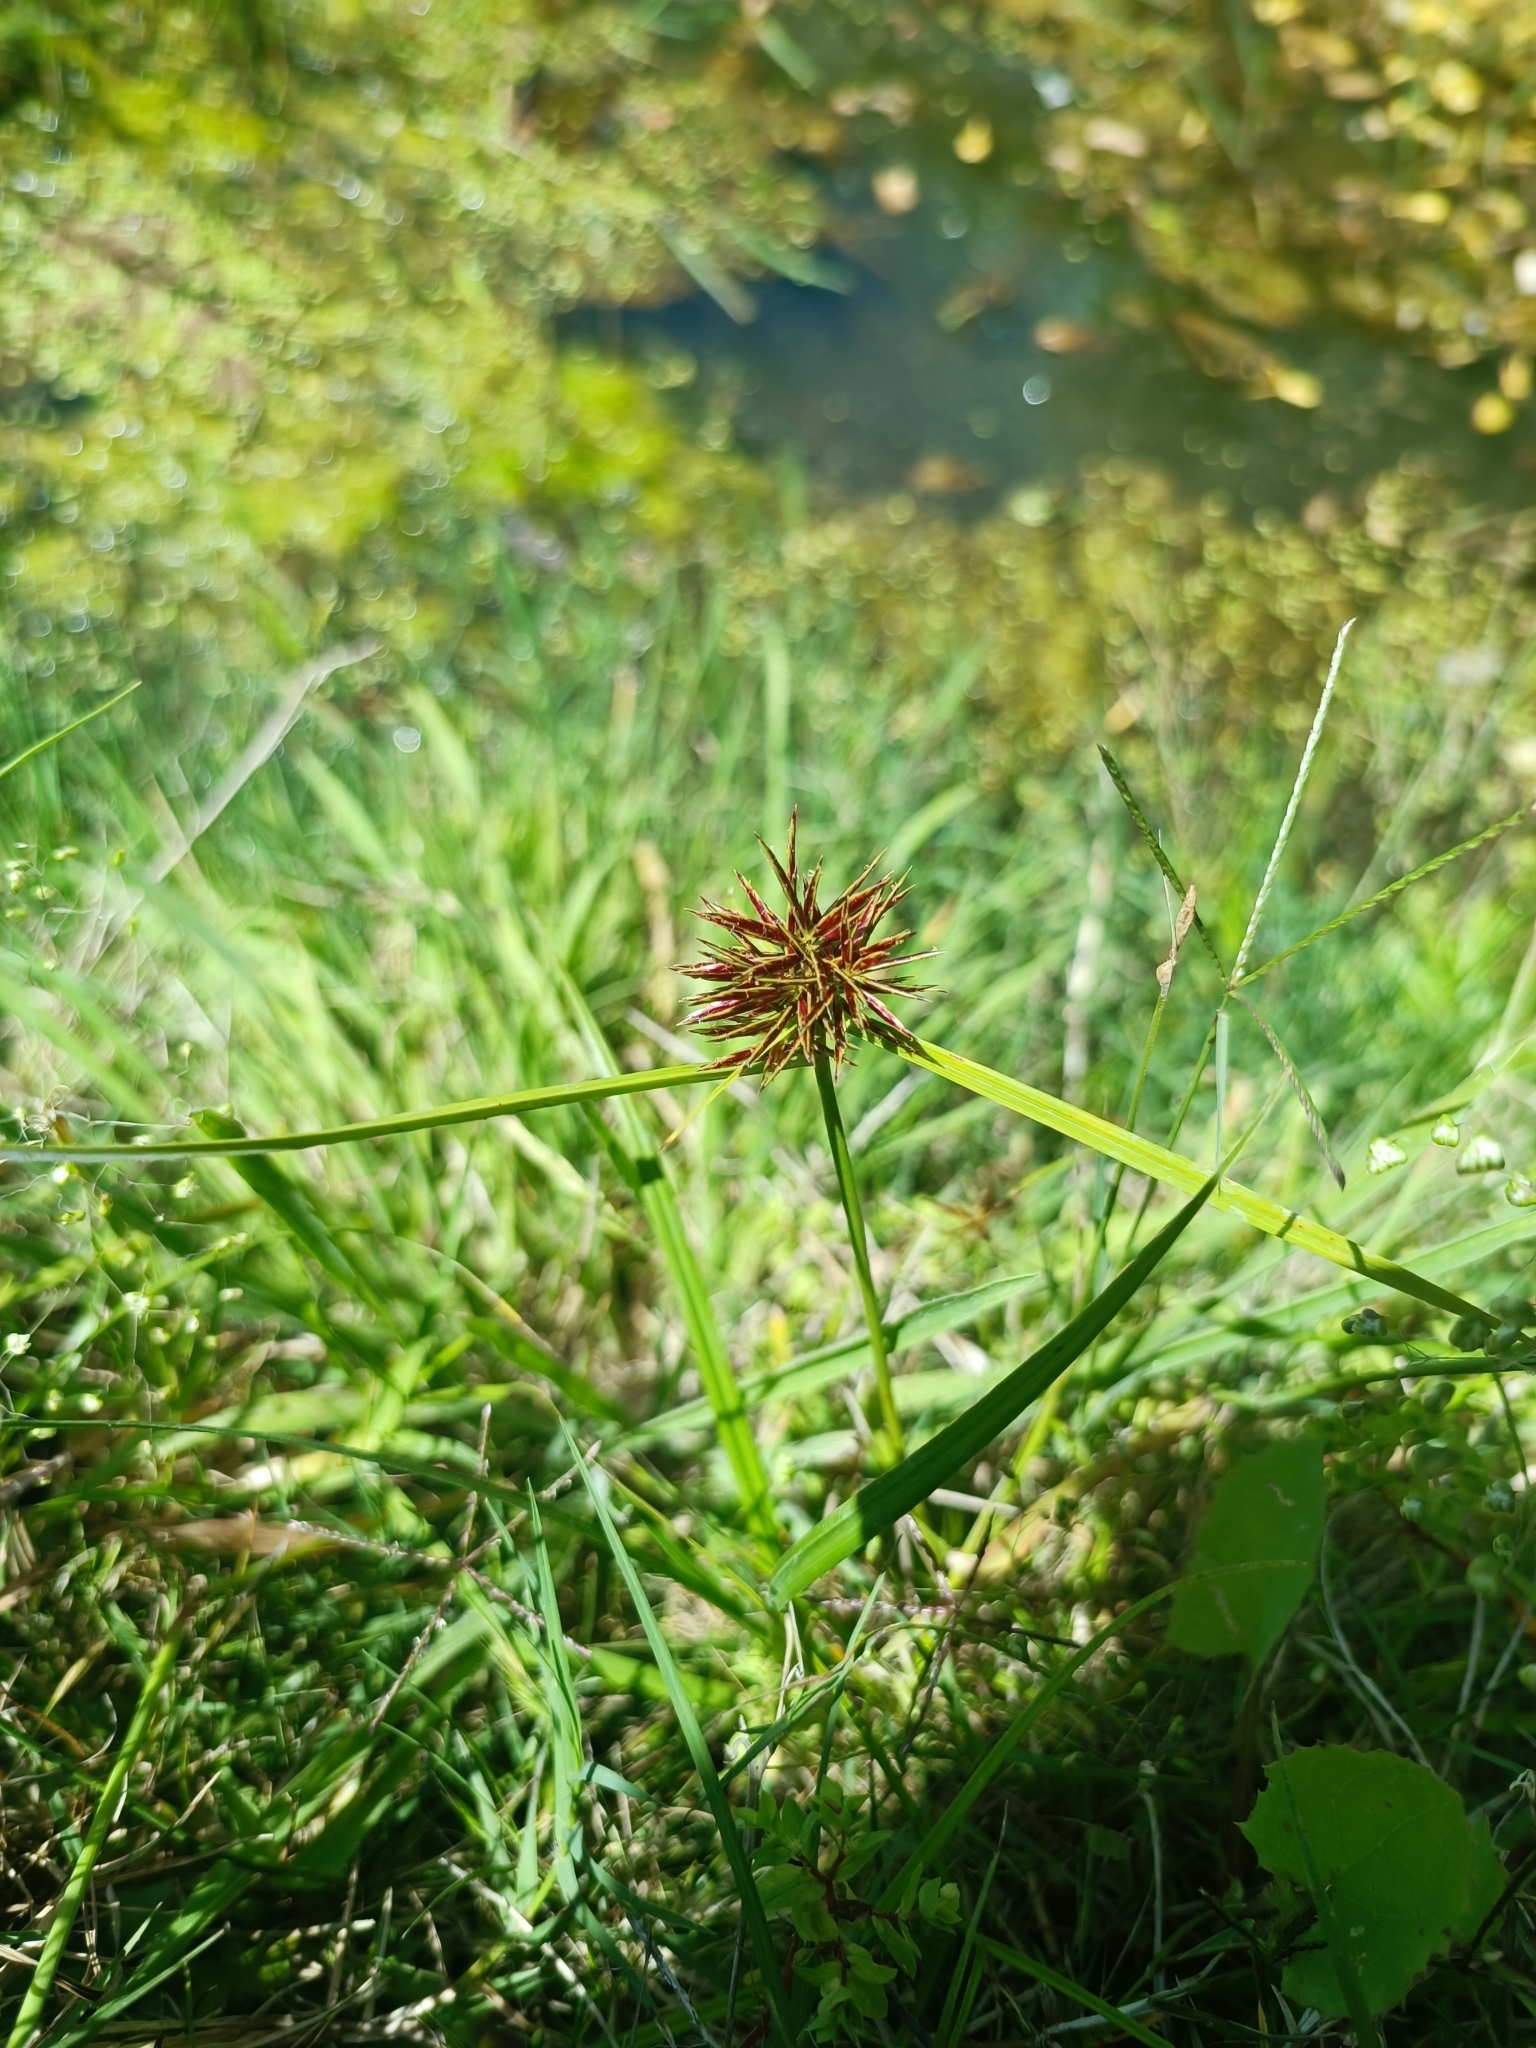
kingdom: Plantae
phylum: Tracheophyta
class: Liliopsida
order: Poales
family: Cyperaceae
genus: Cyperus
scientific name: Cyperus congestus
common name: Dense flat sedge
